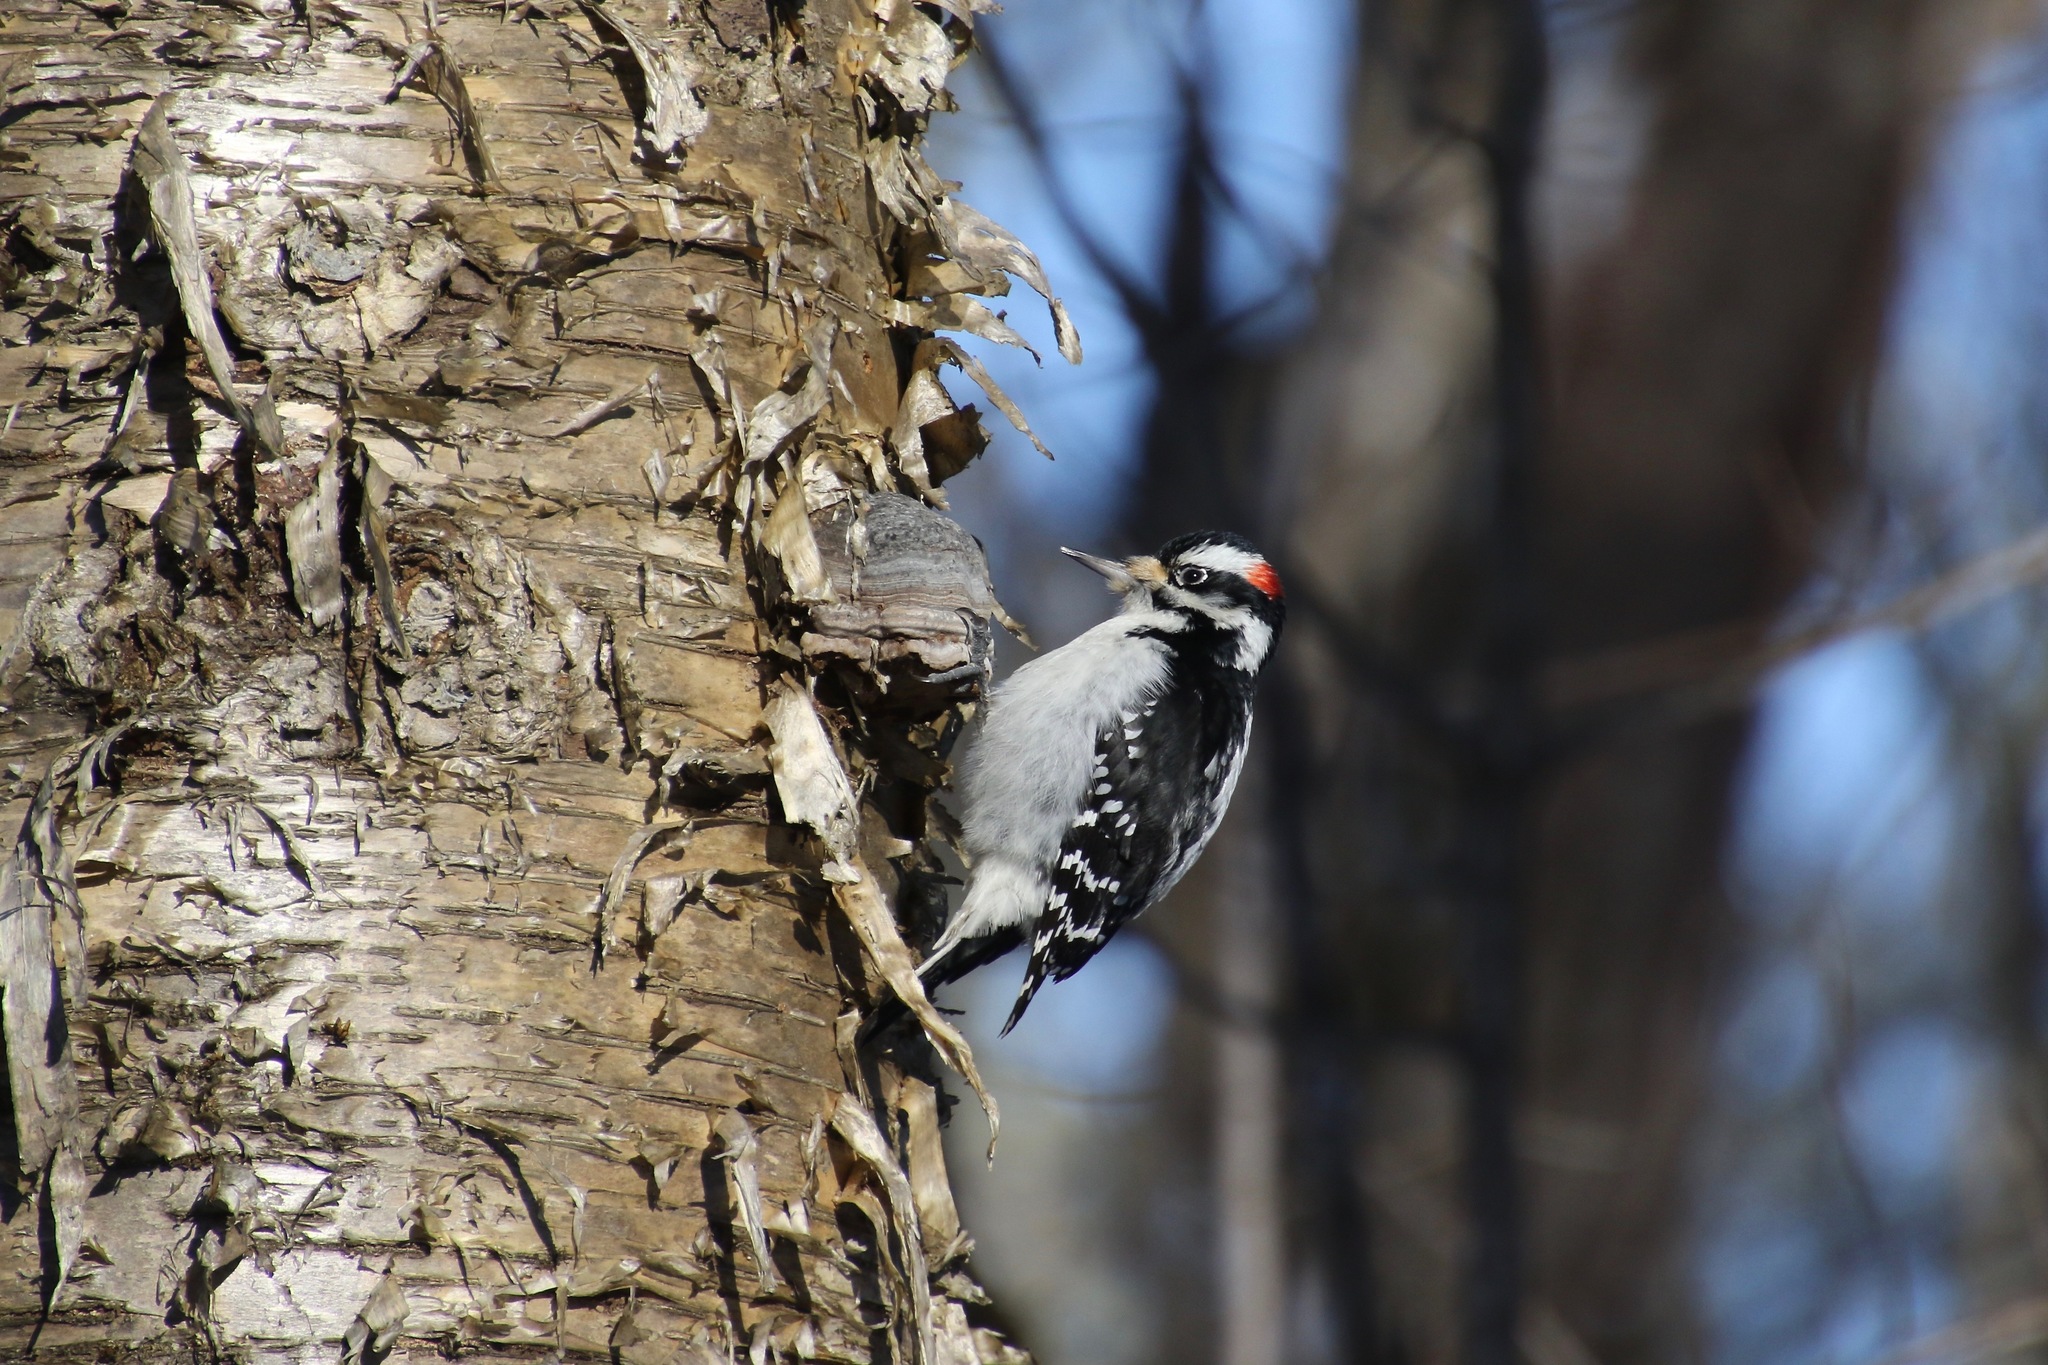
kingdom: Animalia
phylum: Chordata
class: Aves
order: Piciformes
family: Picidae
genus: Leuconotopicus
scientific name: Leuconotopicus villosus
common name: Hairy woodpecker
